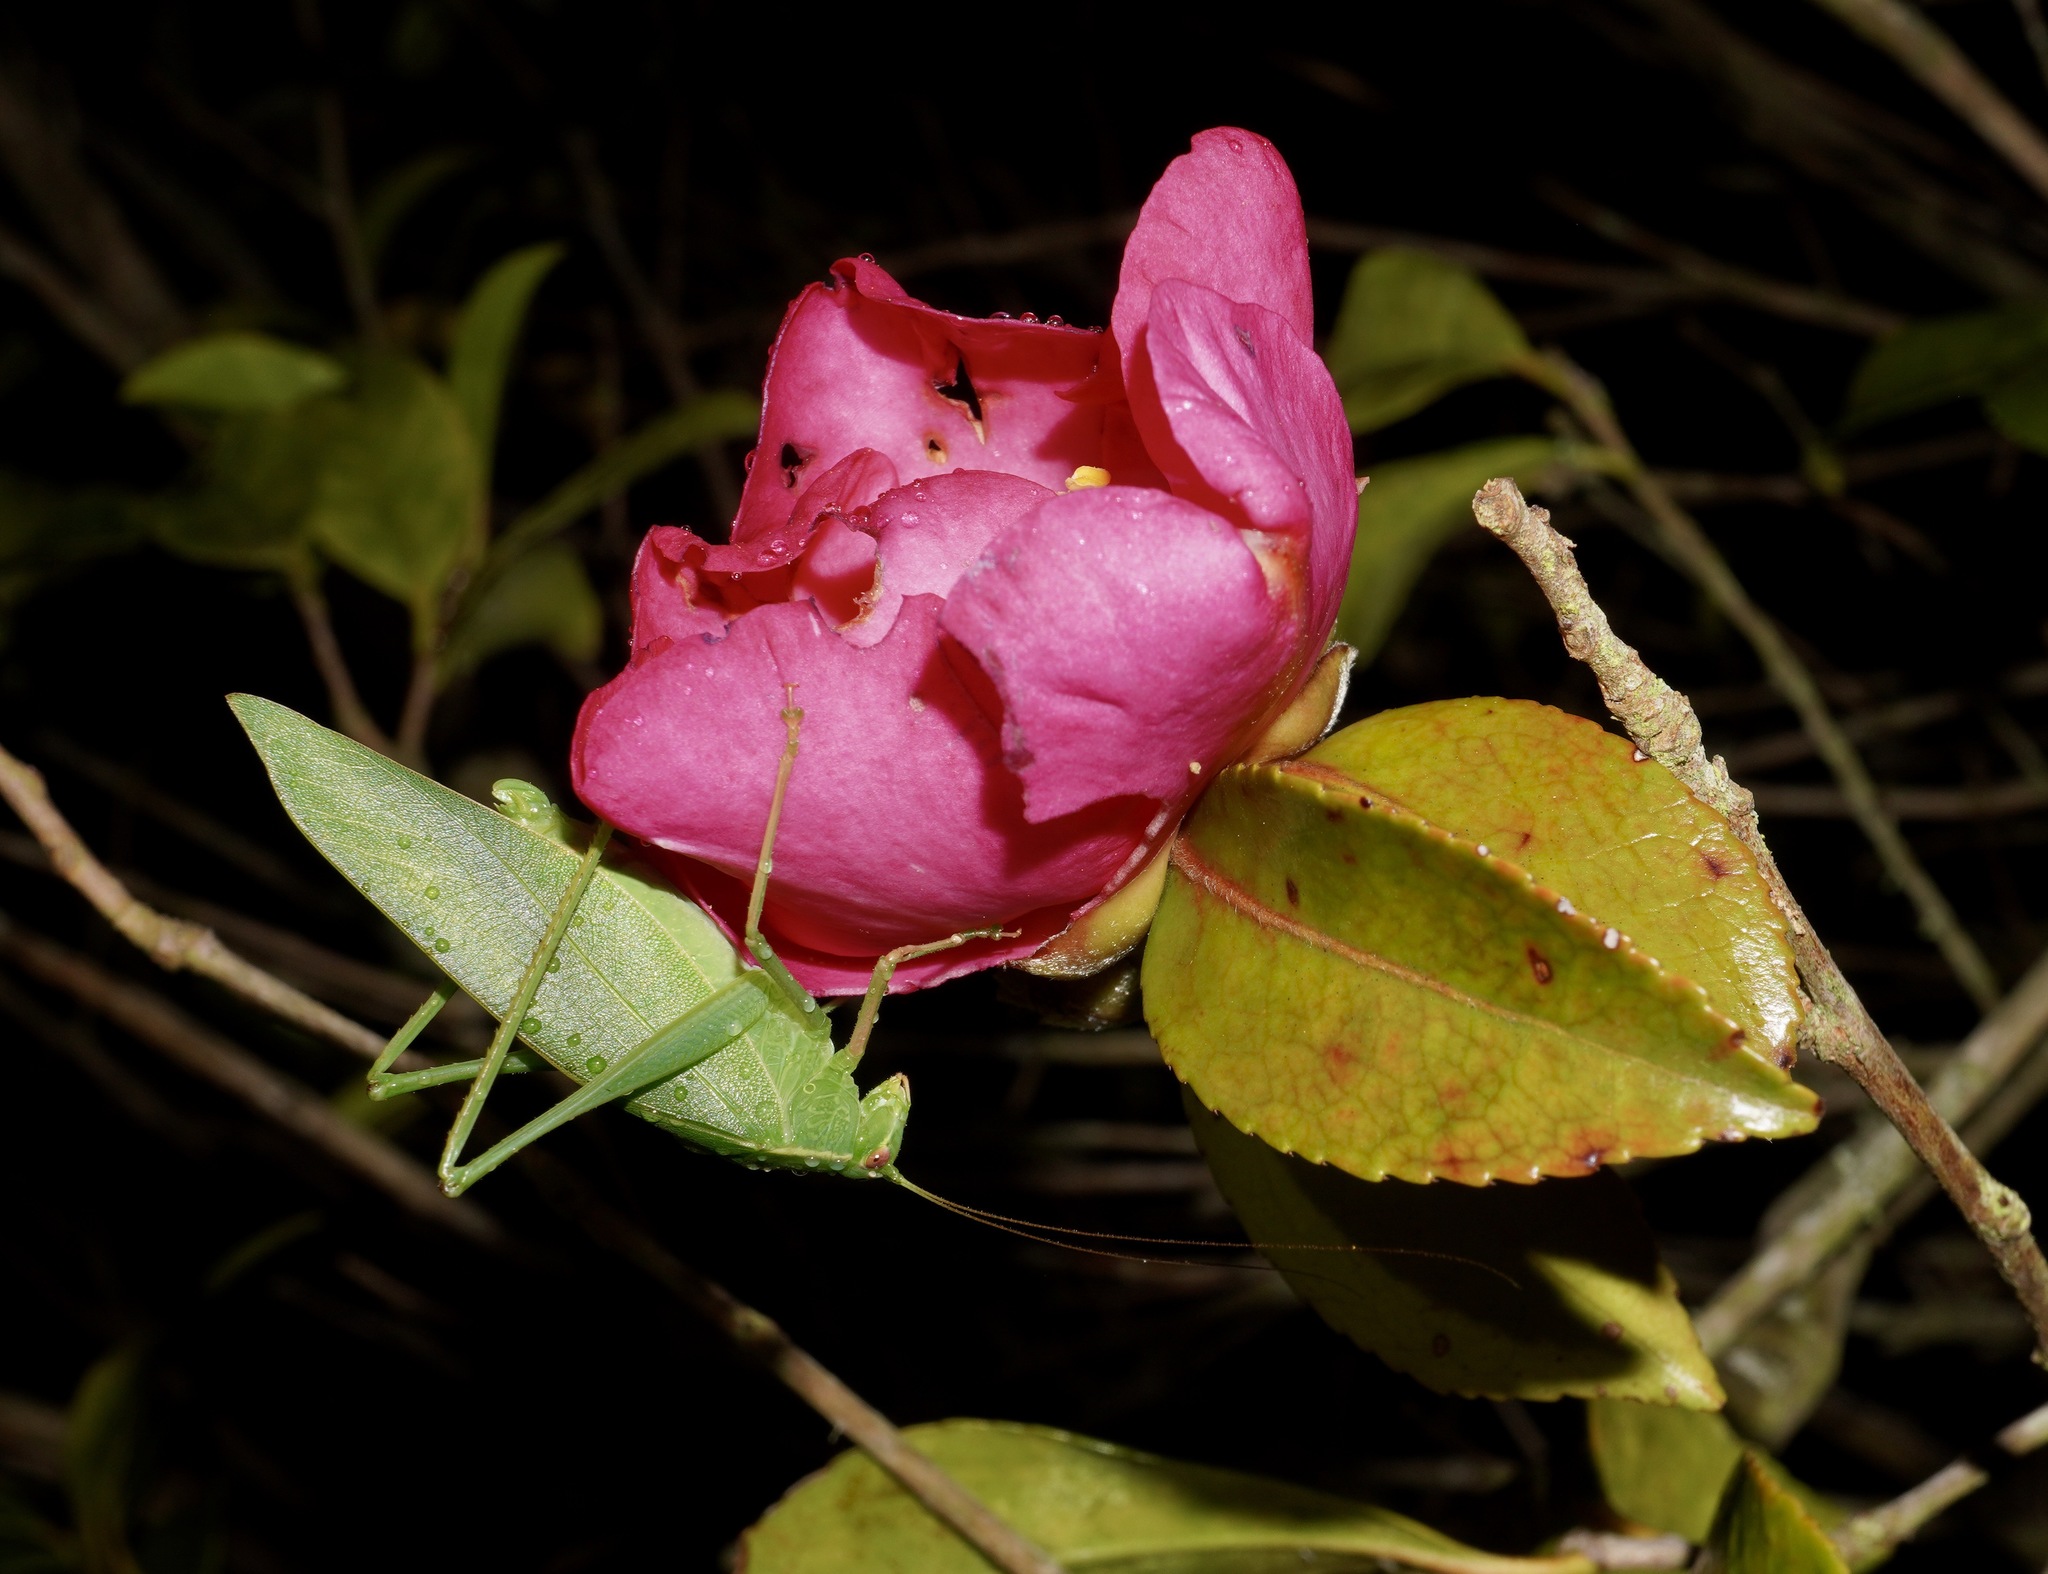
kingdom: Animalia
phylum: Arthropoda
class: Insecta
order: Orthoptera
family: Tettigoniidae
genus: Caedicia
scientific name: Caedicia simplex
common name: Common garden katydid
